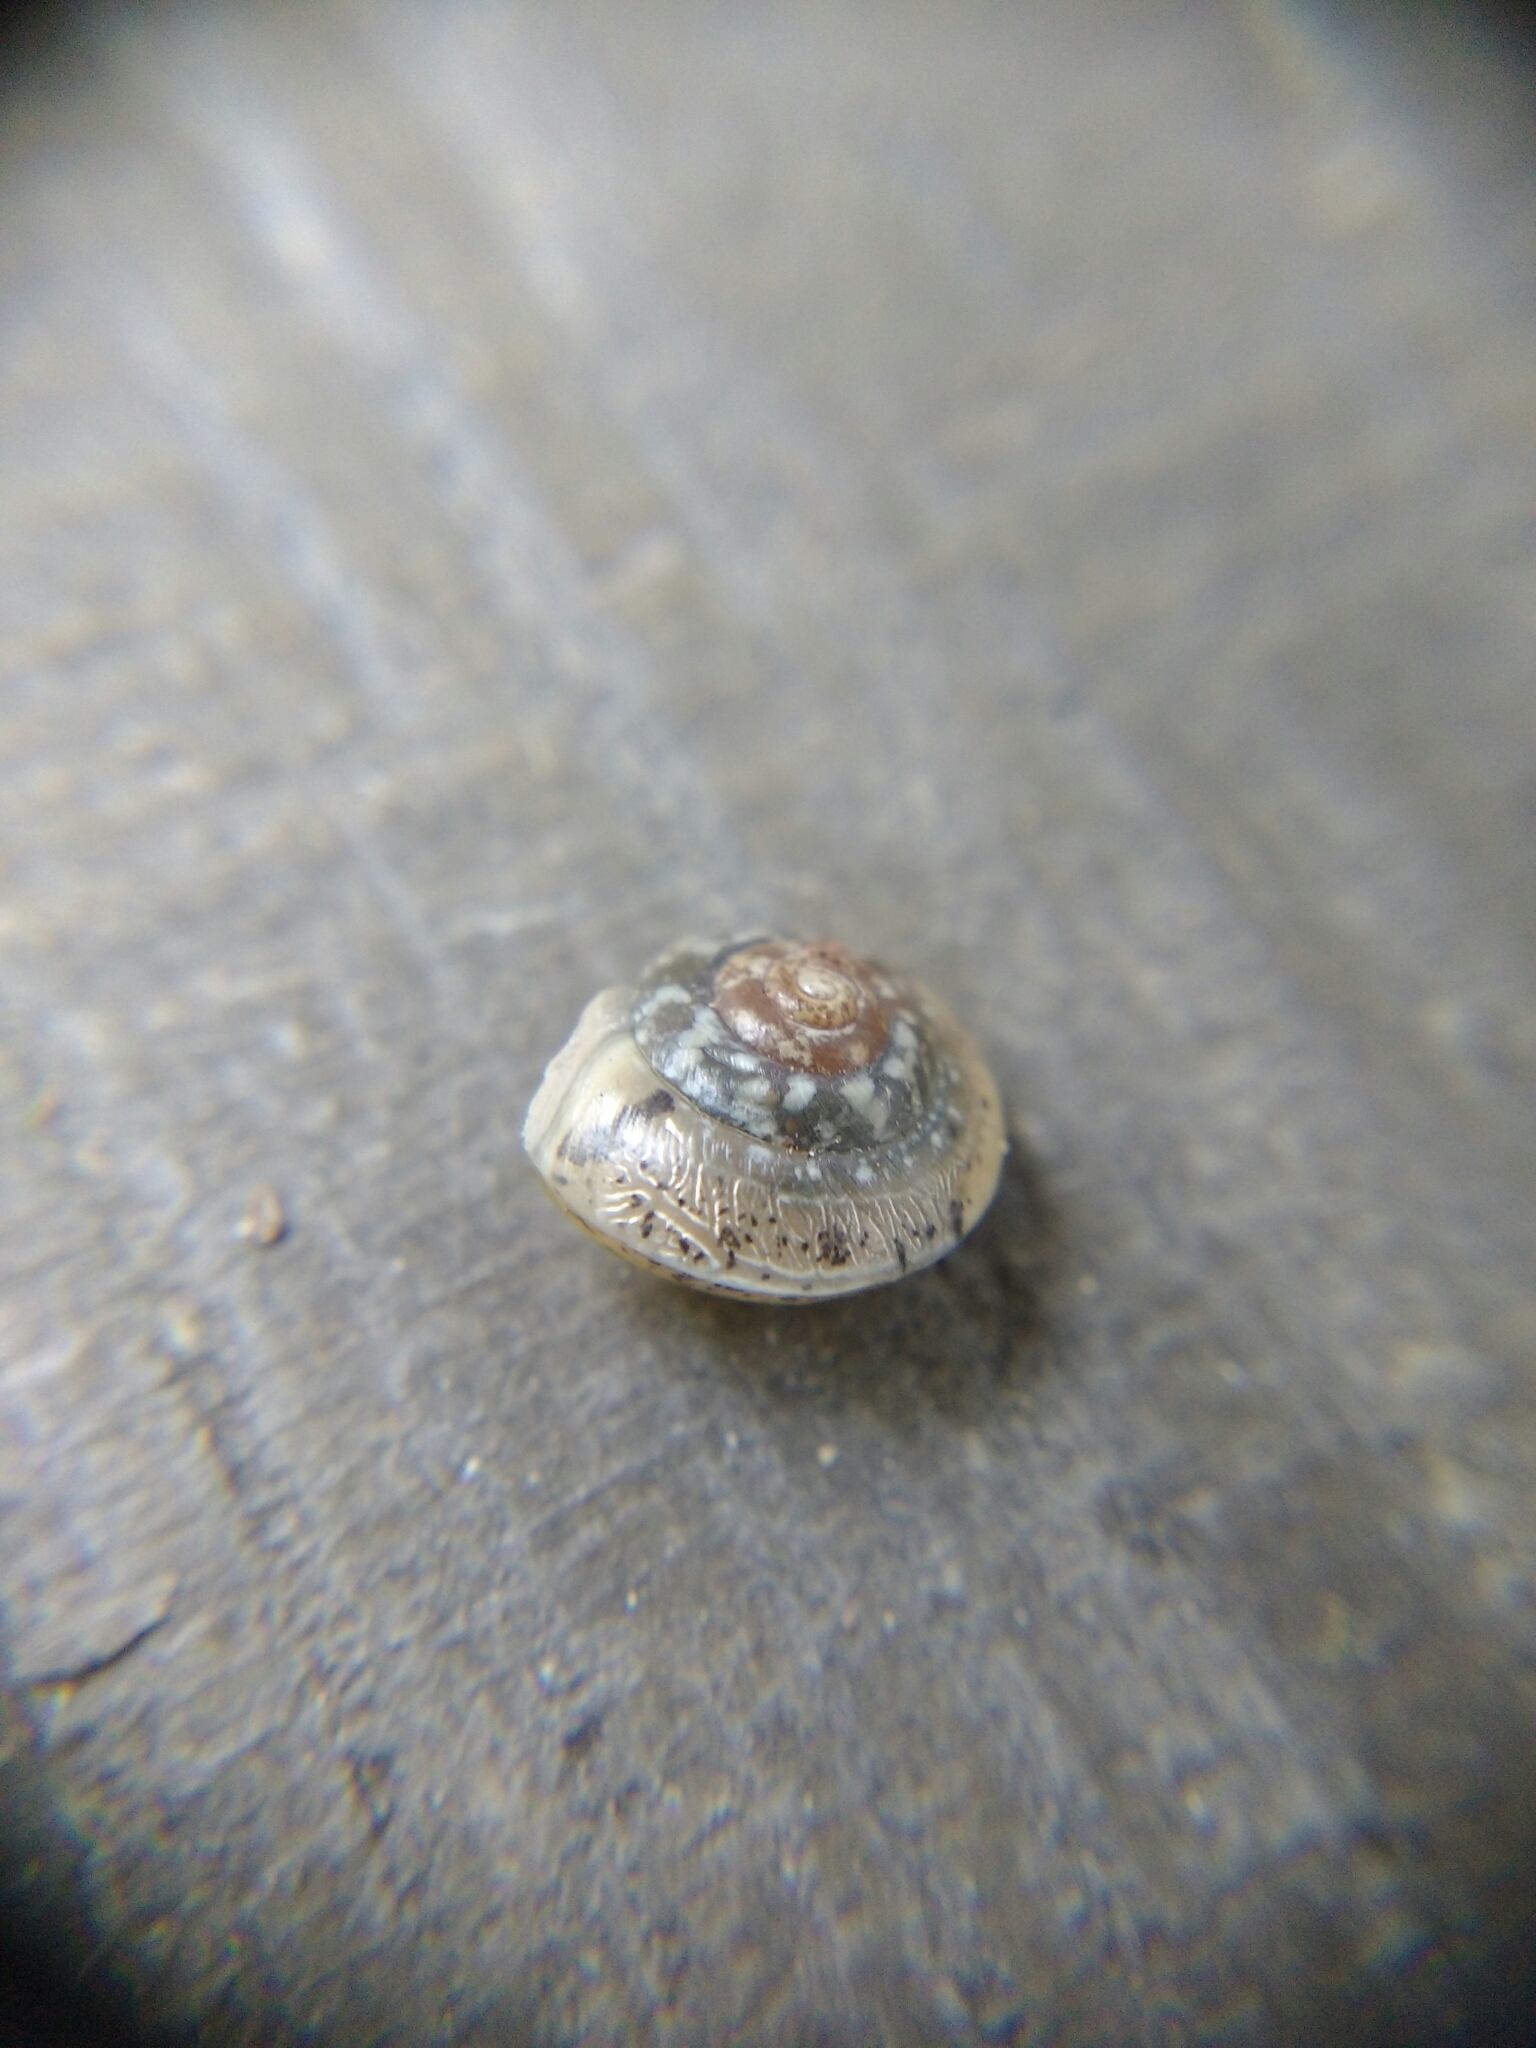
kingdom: Animalia
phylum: Mollusca
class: Gastropoda
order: Stylommatophora
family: Hygromiidae
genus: Hygromia
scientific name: Hygromia cinctella
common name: Girdled snail
